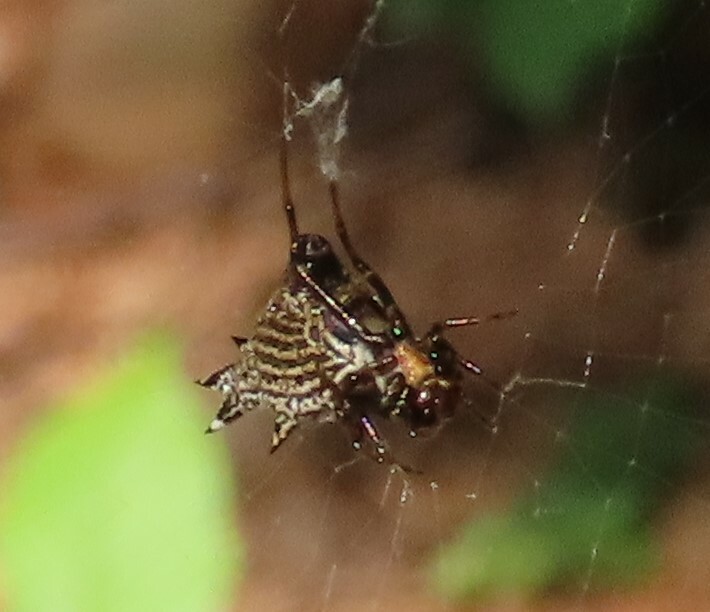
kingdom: Animalia
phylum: Arthropoda
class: Arachnida
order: Araneae
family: Araneidae
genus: Micrathena
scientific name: Micrathena gracilis
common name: Orb weavers
